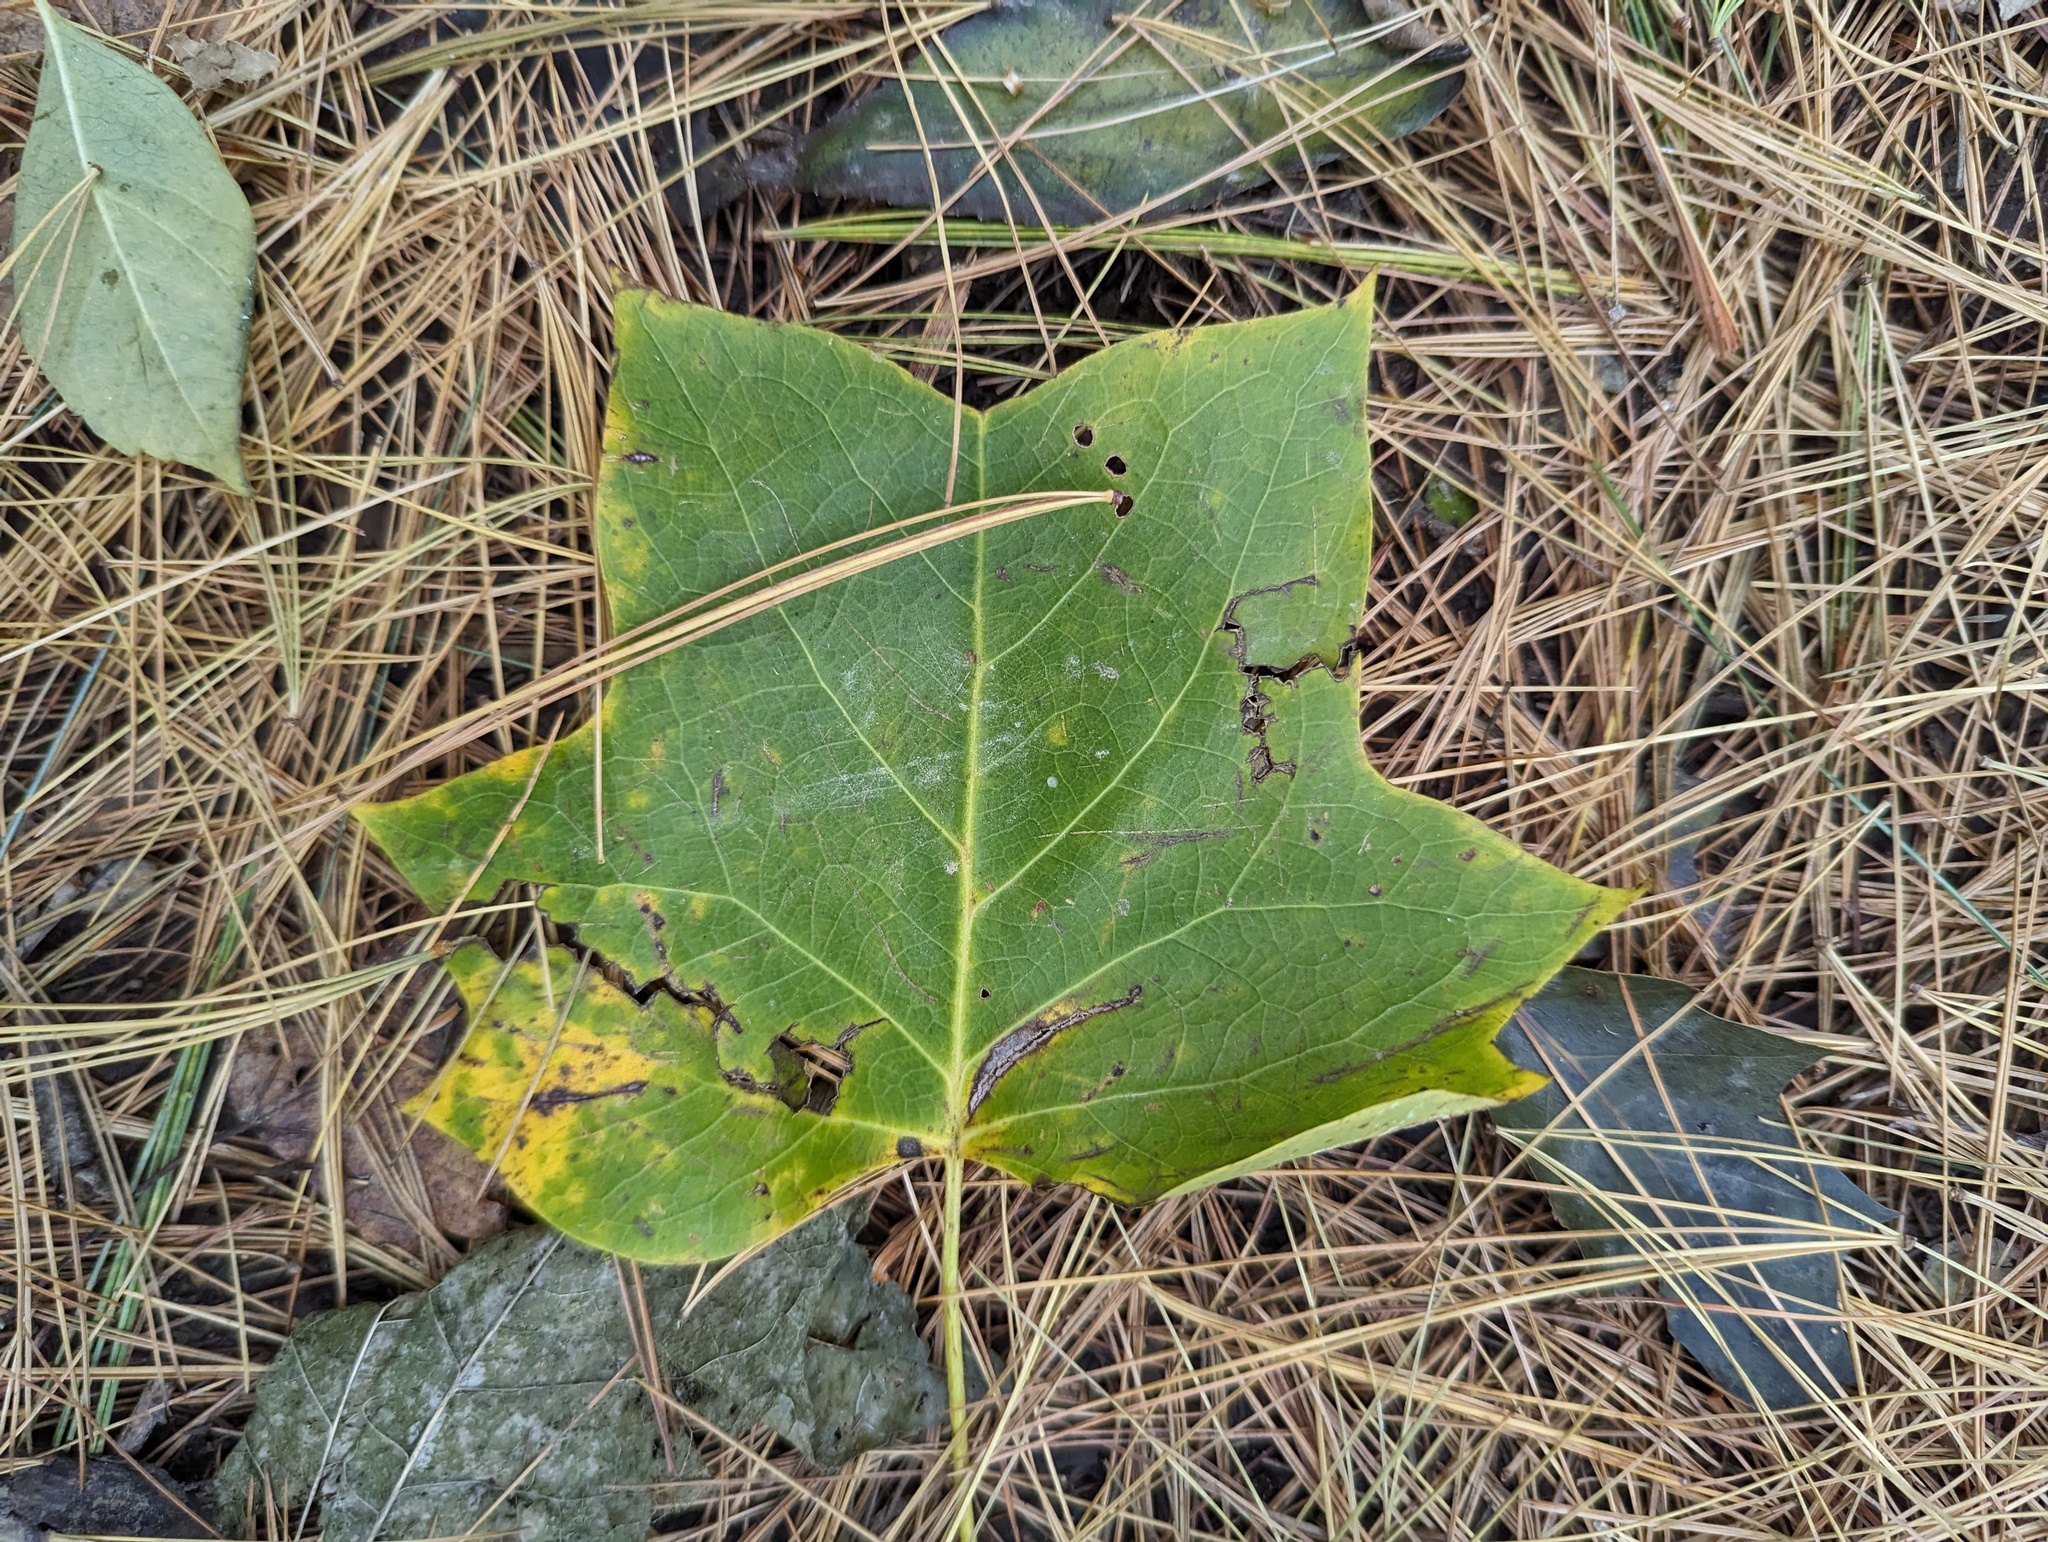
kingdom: Plantae
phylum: Tracheophyta
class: Magnoliopsida
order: Magnoliales
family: Magnoliaceae
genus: Liriodendron
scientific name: Liriodendron tulipifera
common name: Tulip tree
